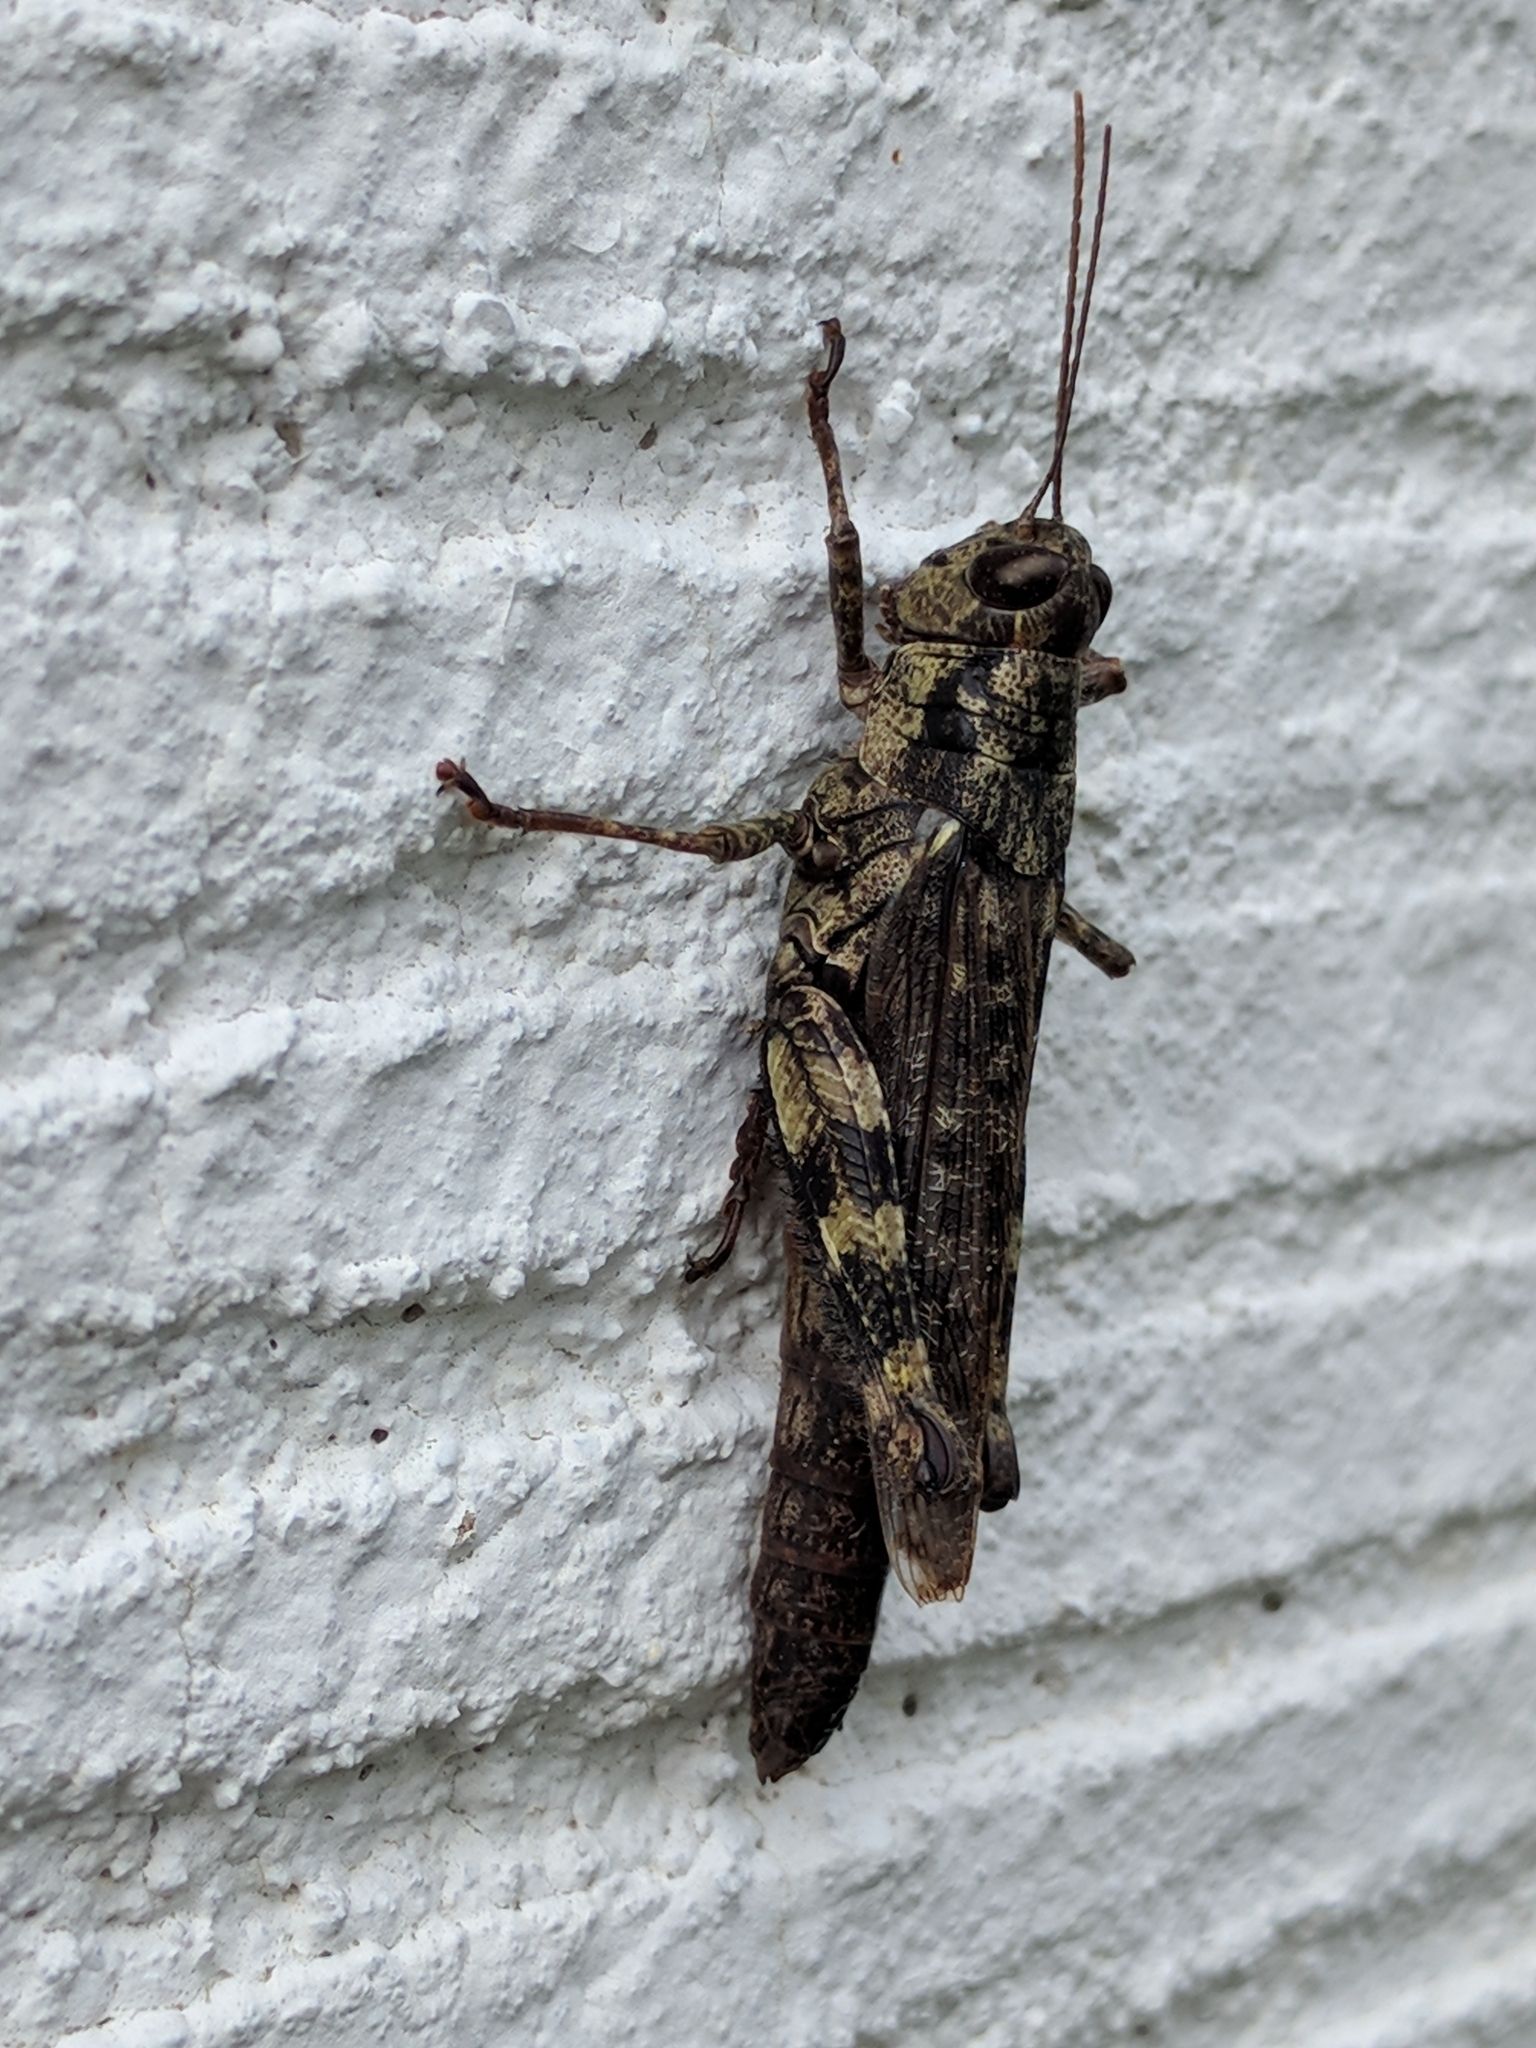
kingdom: Animalia
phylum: Arthropoda
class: Insecta
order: Orthoptera
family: Acrididae
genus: Melanoplus
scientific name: Melanoplus punctulatus
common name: Pine-tree spur-throat grasshopper
